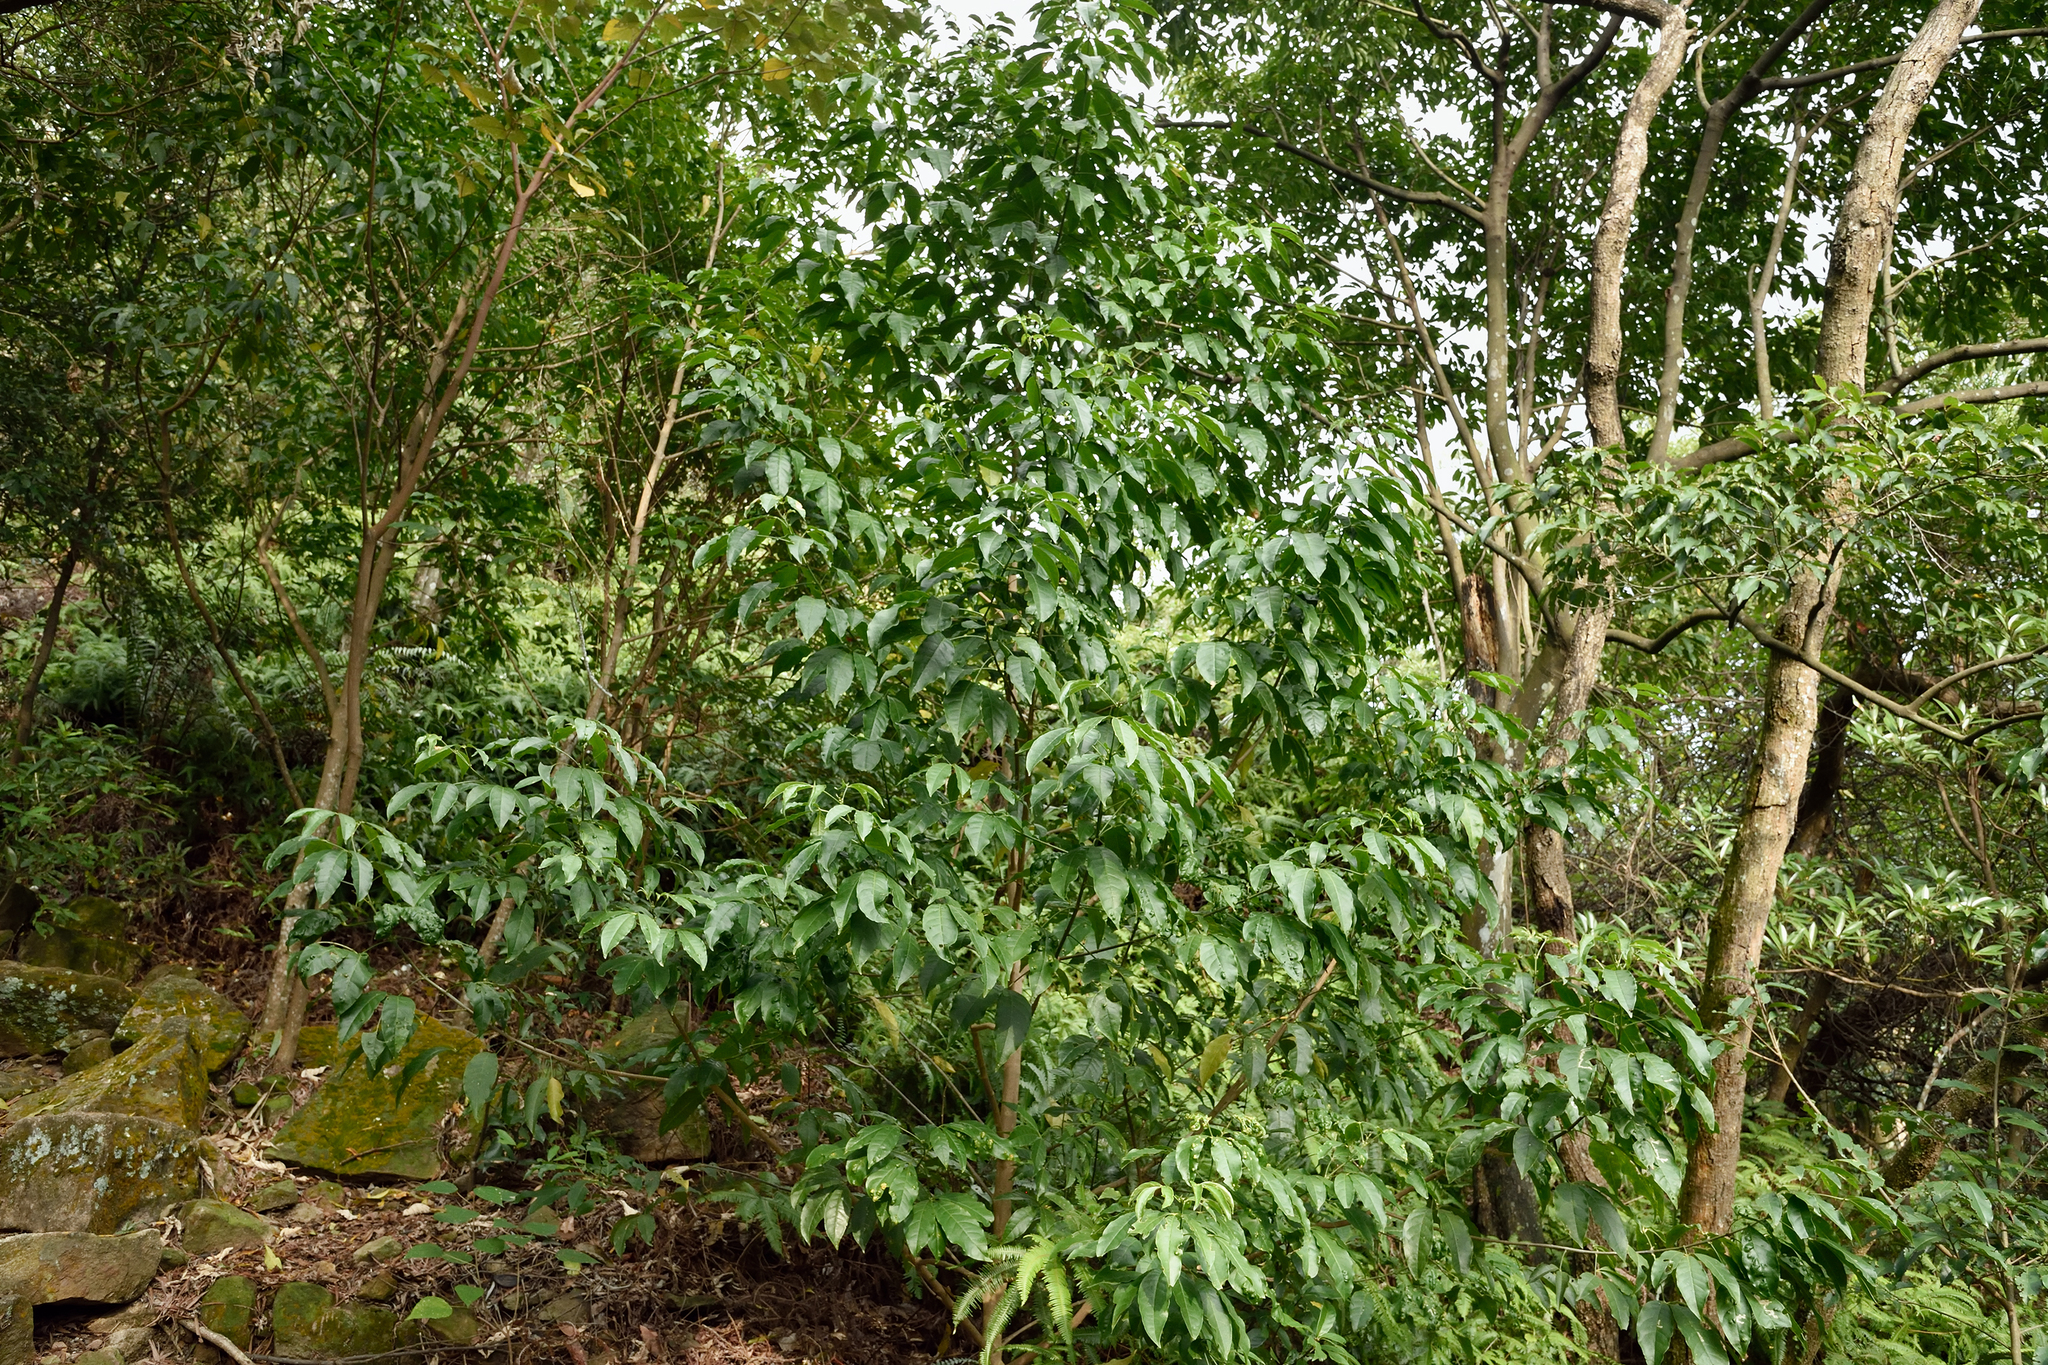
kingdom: Plantae
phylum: Tracheophyta
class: Magnoliopsida
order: Sapindales
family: Rutaceae
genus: Melicope
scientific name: Melicope pteleifolia
